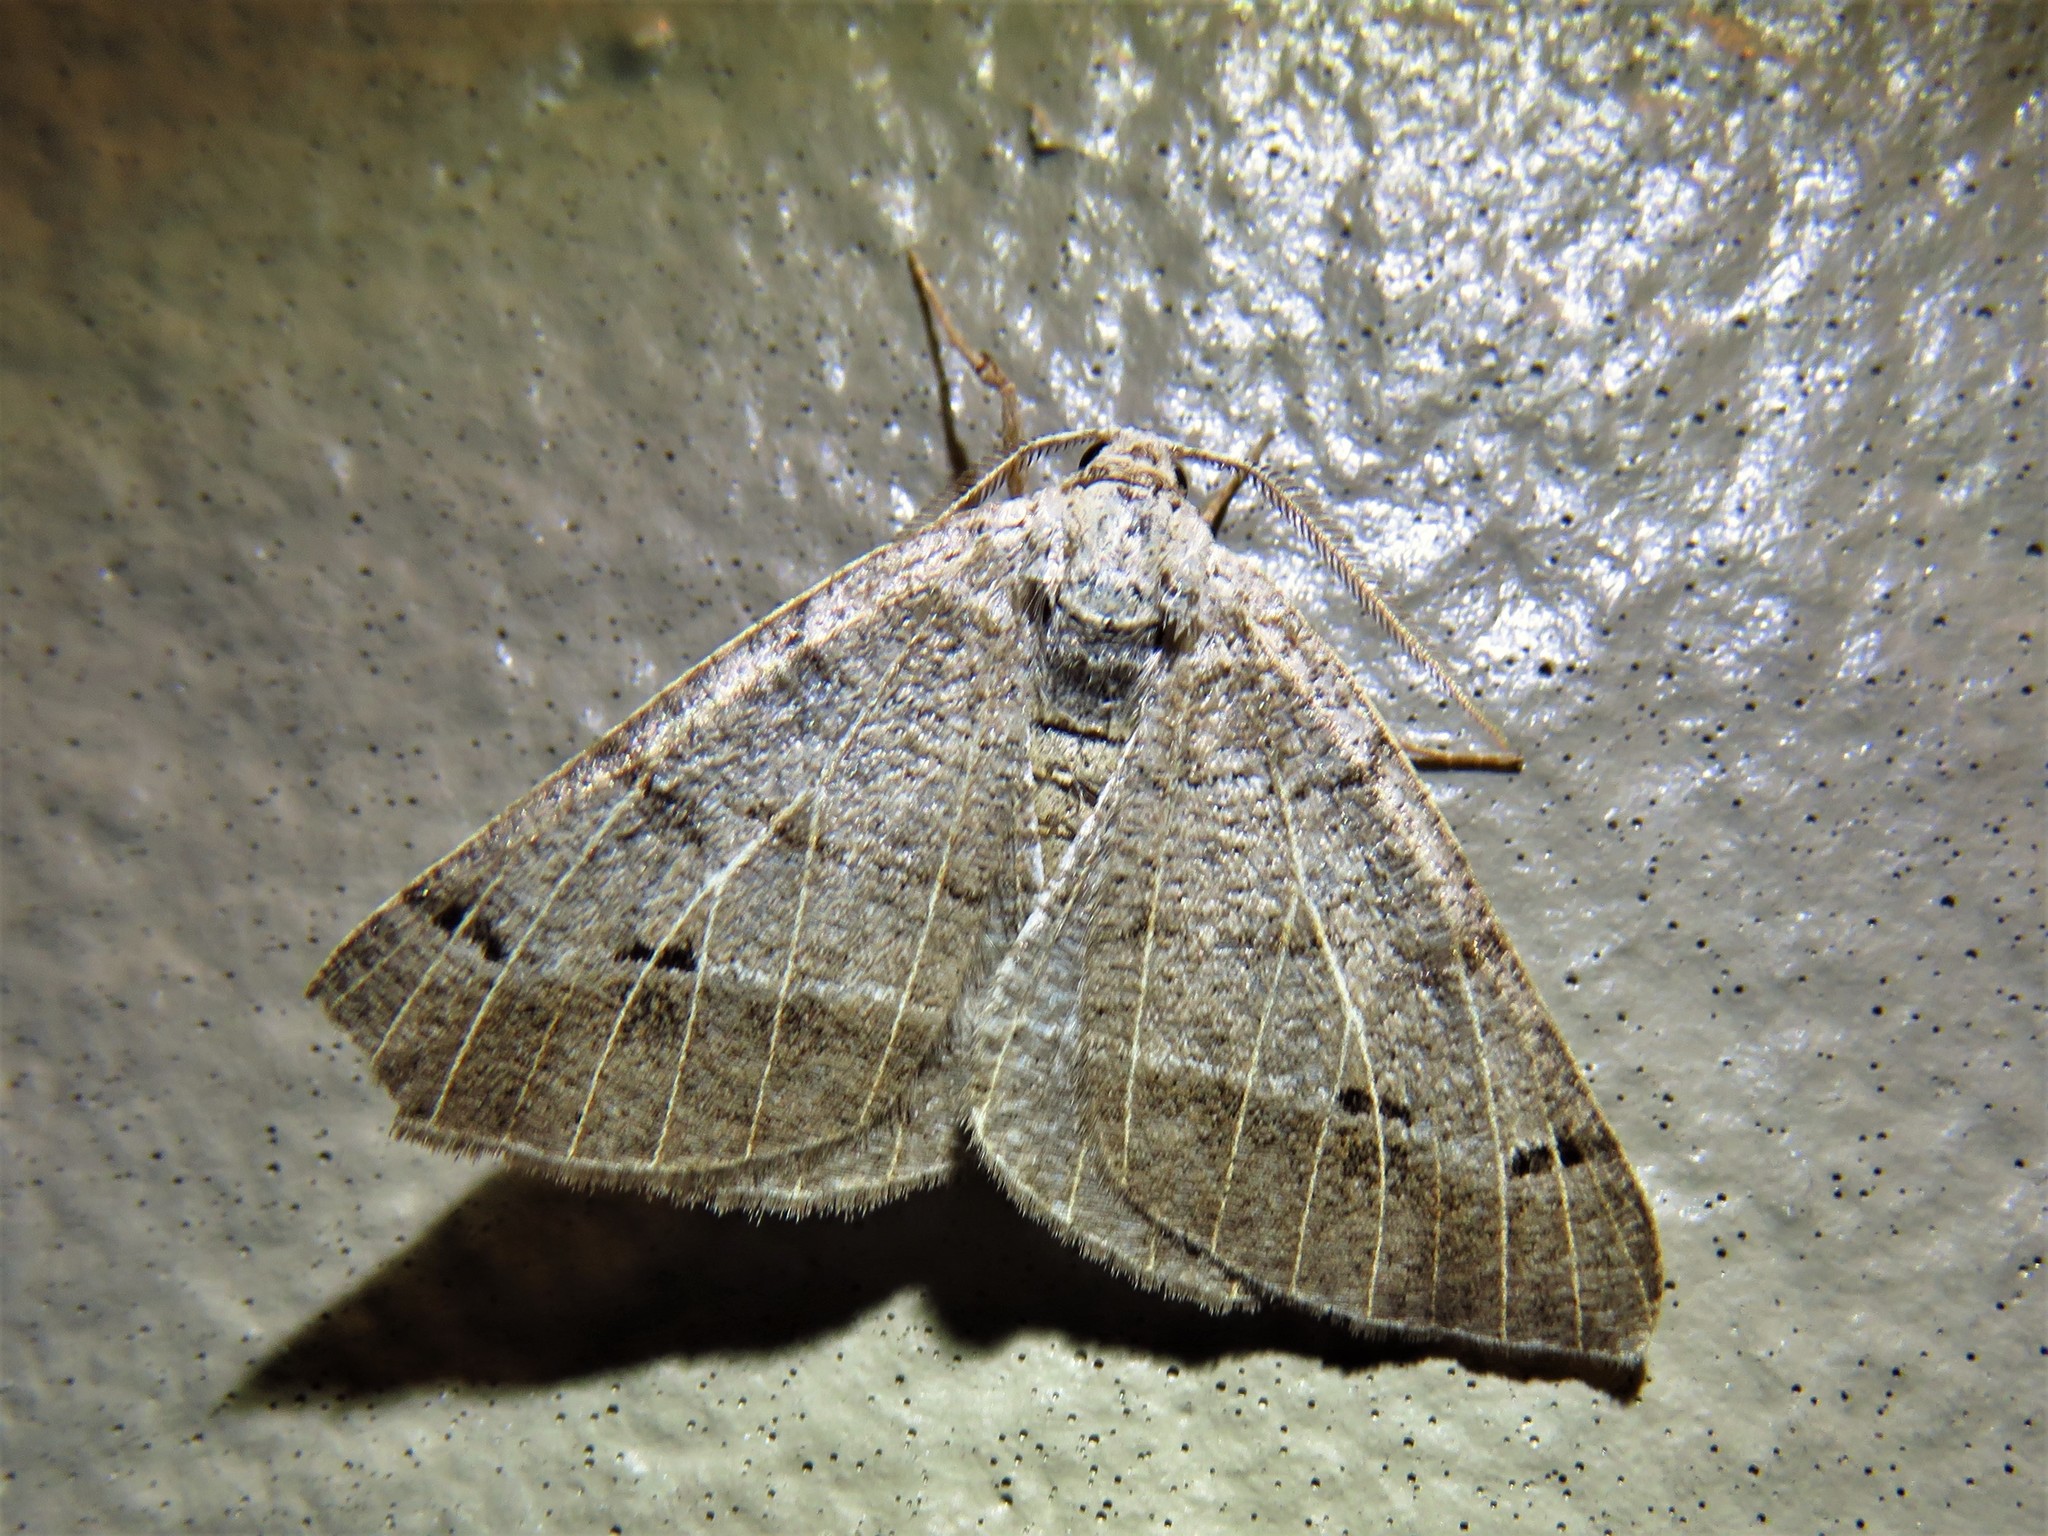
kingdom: Animalia
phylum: Arthropoda
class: Insecta
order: Lepidoptera
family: Geometridae
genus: Isturgia
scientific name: Isturgia dislocaria
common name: Pale-viened enconista
